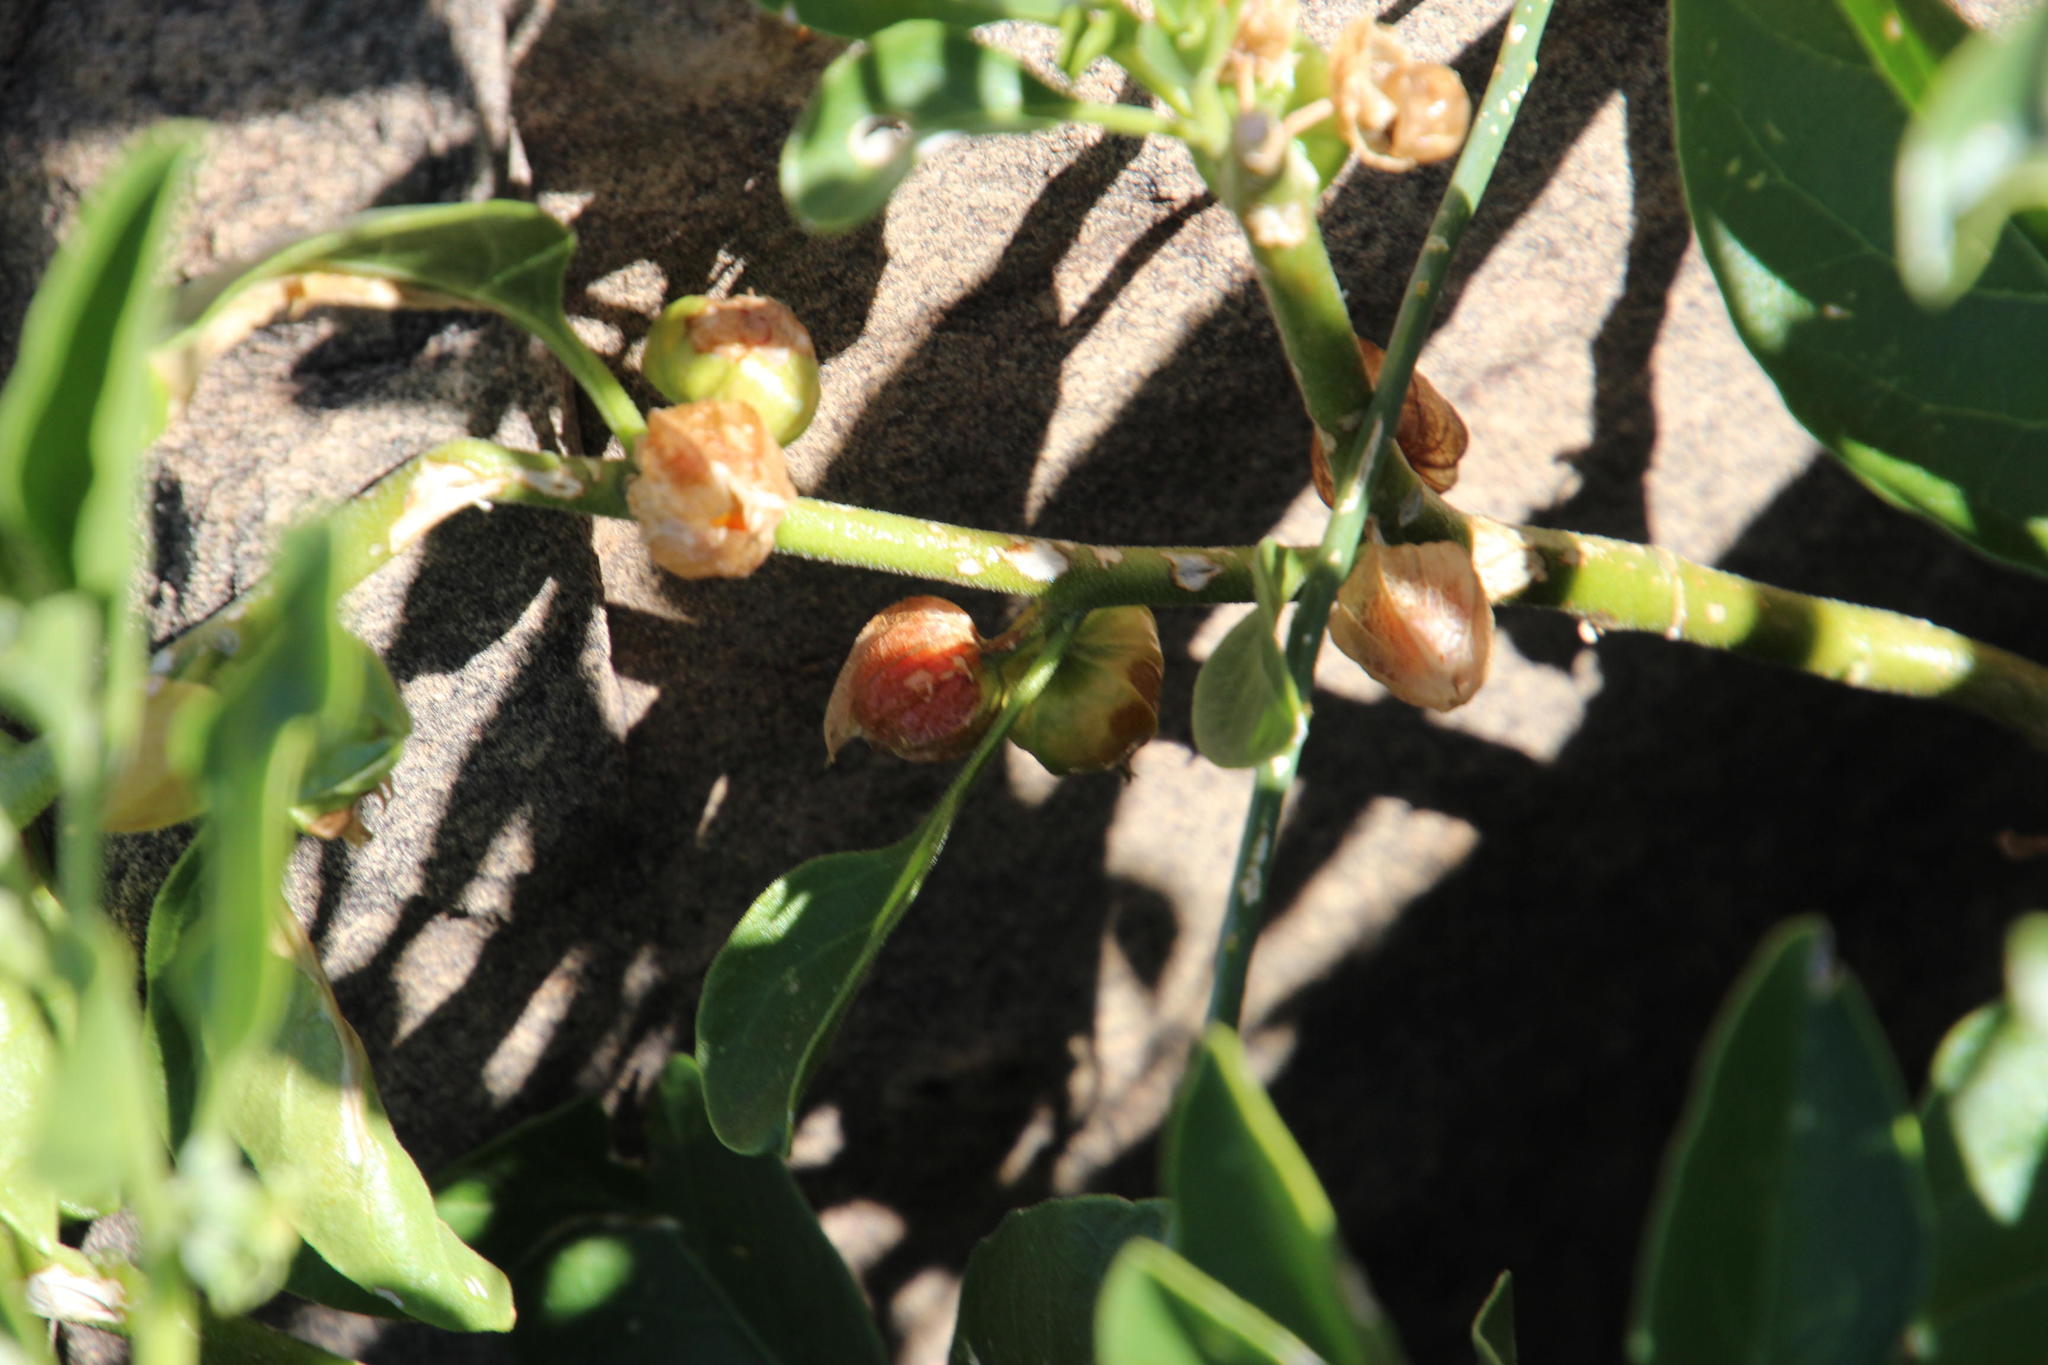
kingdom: Plantae
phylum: Tracheophyta
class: Magnoliopsida
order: Solanales
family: Solanaceae
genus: Withania
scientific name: Withania somnifera
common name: Winter-cherry
